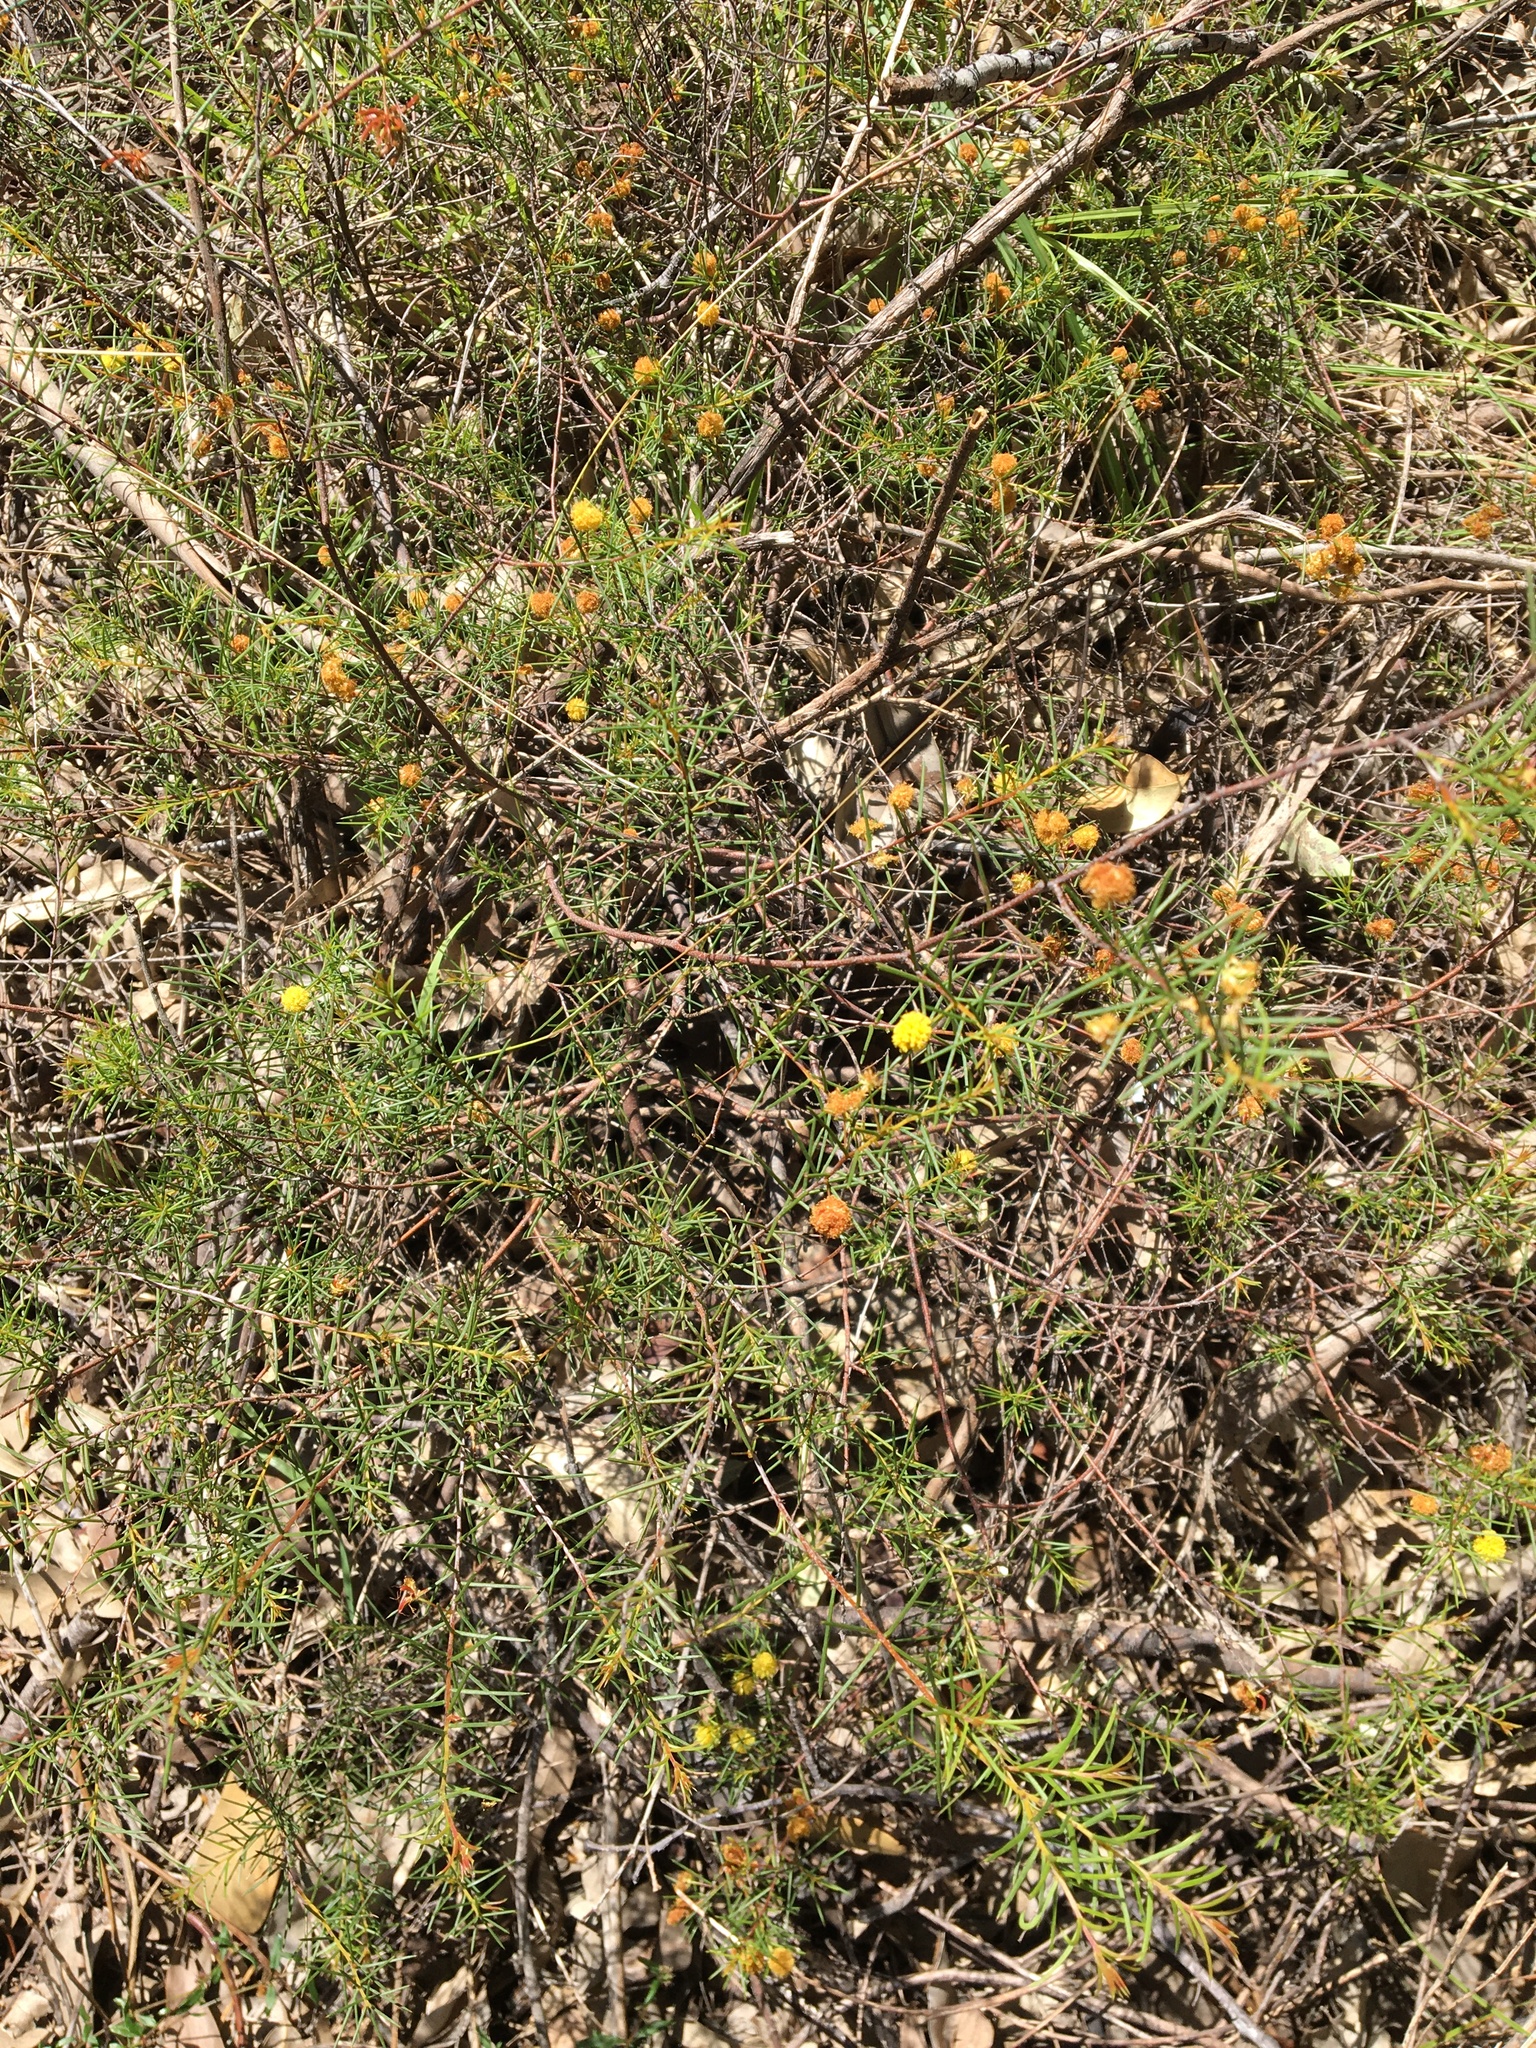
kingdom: Plantae
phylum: Tracheophyta
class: Magnoliopsida
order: Fabales
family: Fabaceae
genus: Acacia
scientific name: Acacia brownii
